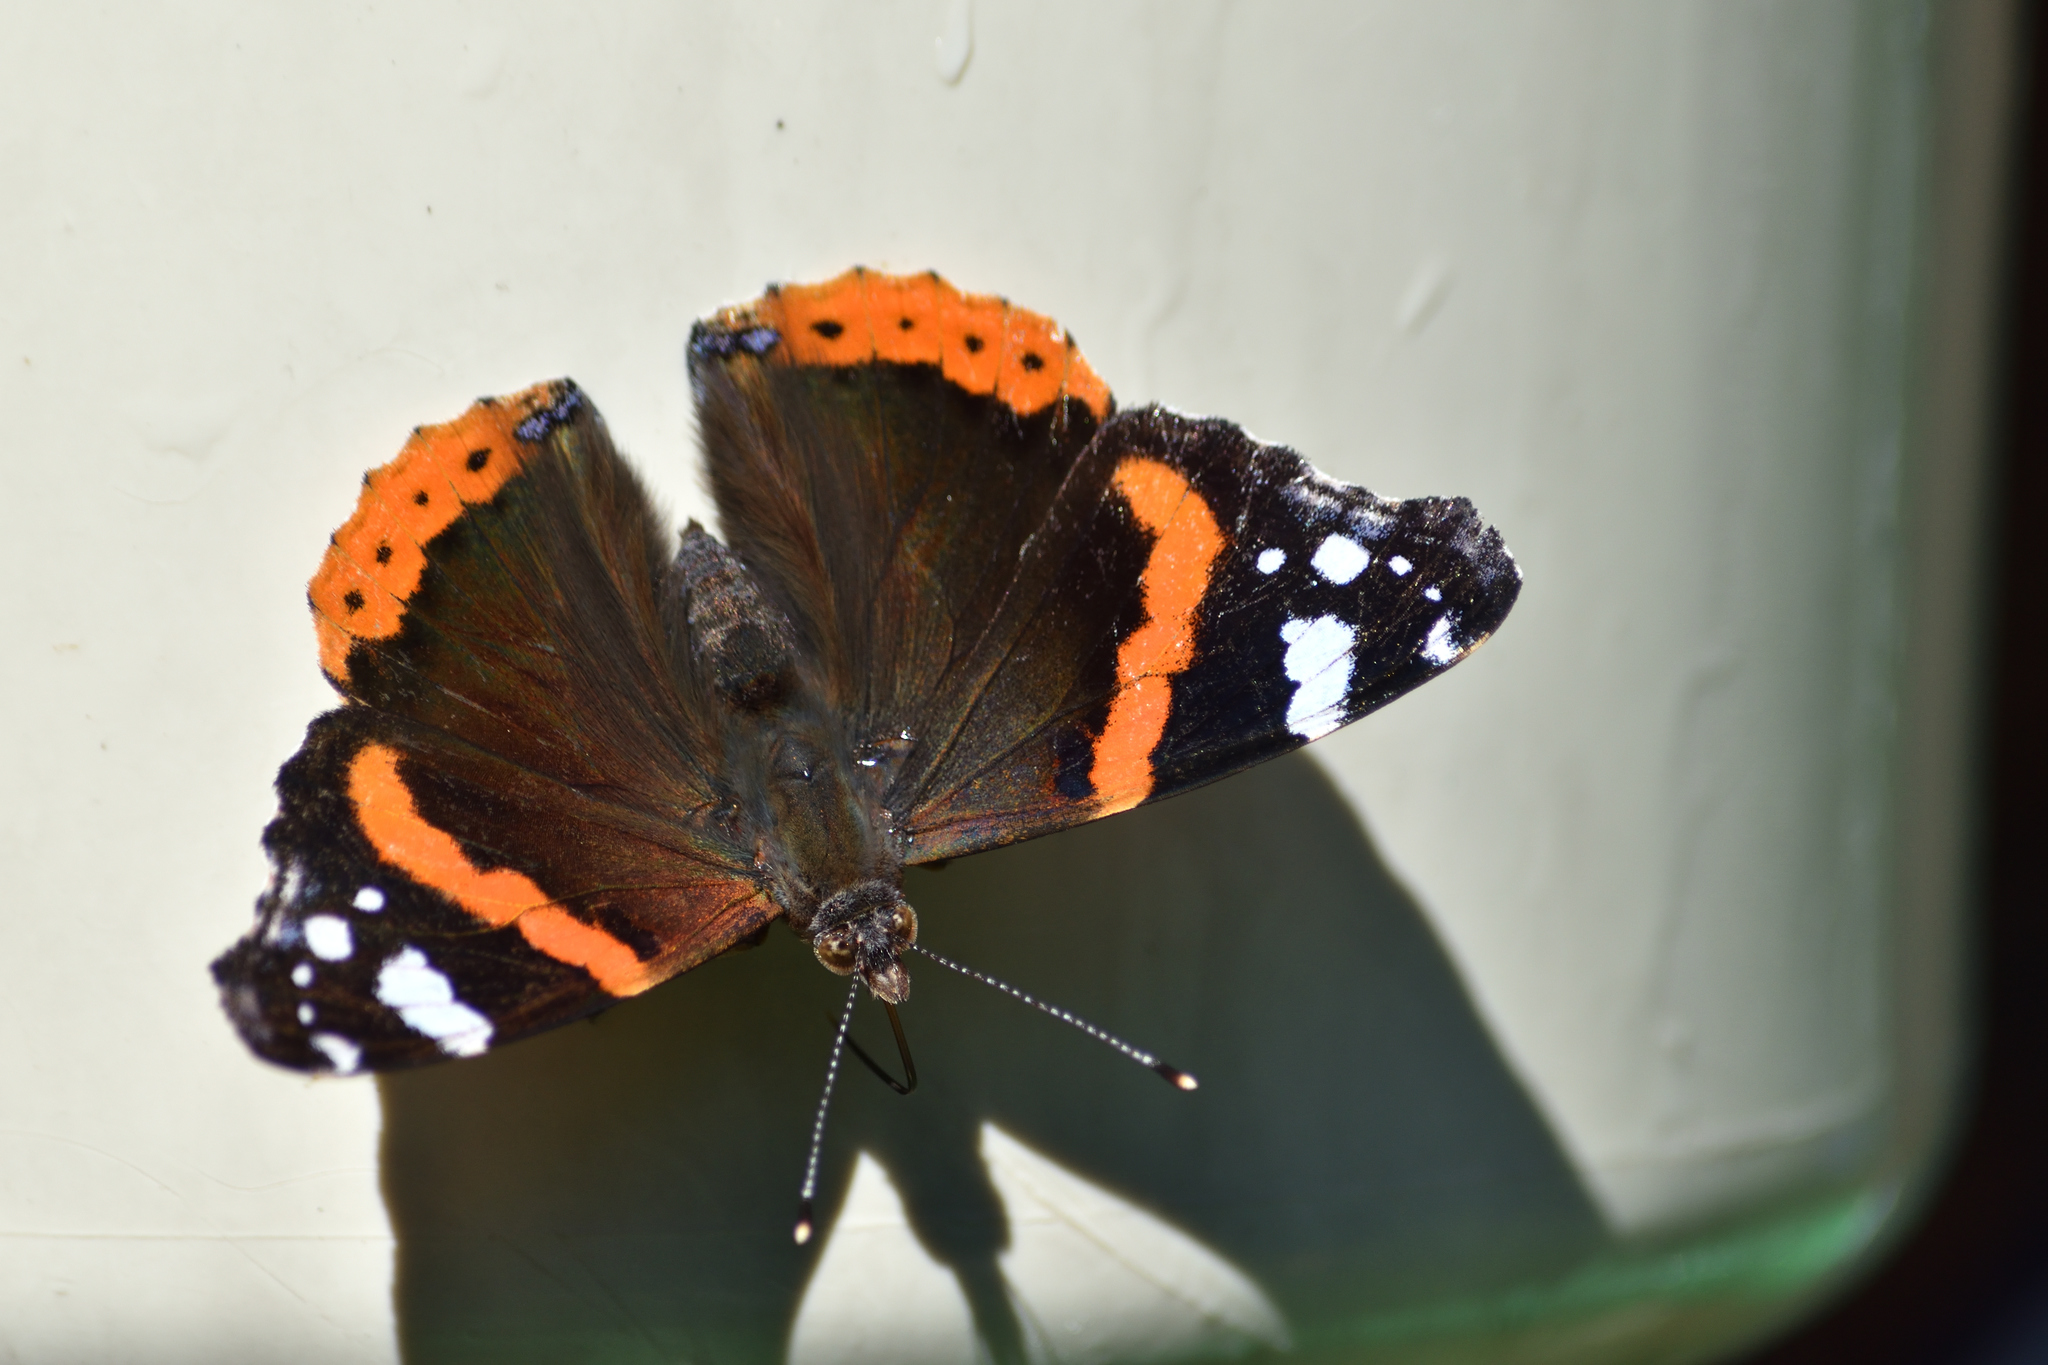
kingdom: Animalia
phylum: Arthropoda
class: Insecta
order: Lepidoptera
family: Nymphalidae
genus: Vanessa
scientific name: Vanessa atalanta
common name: Red admiral
